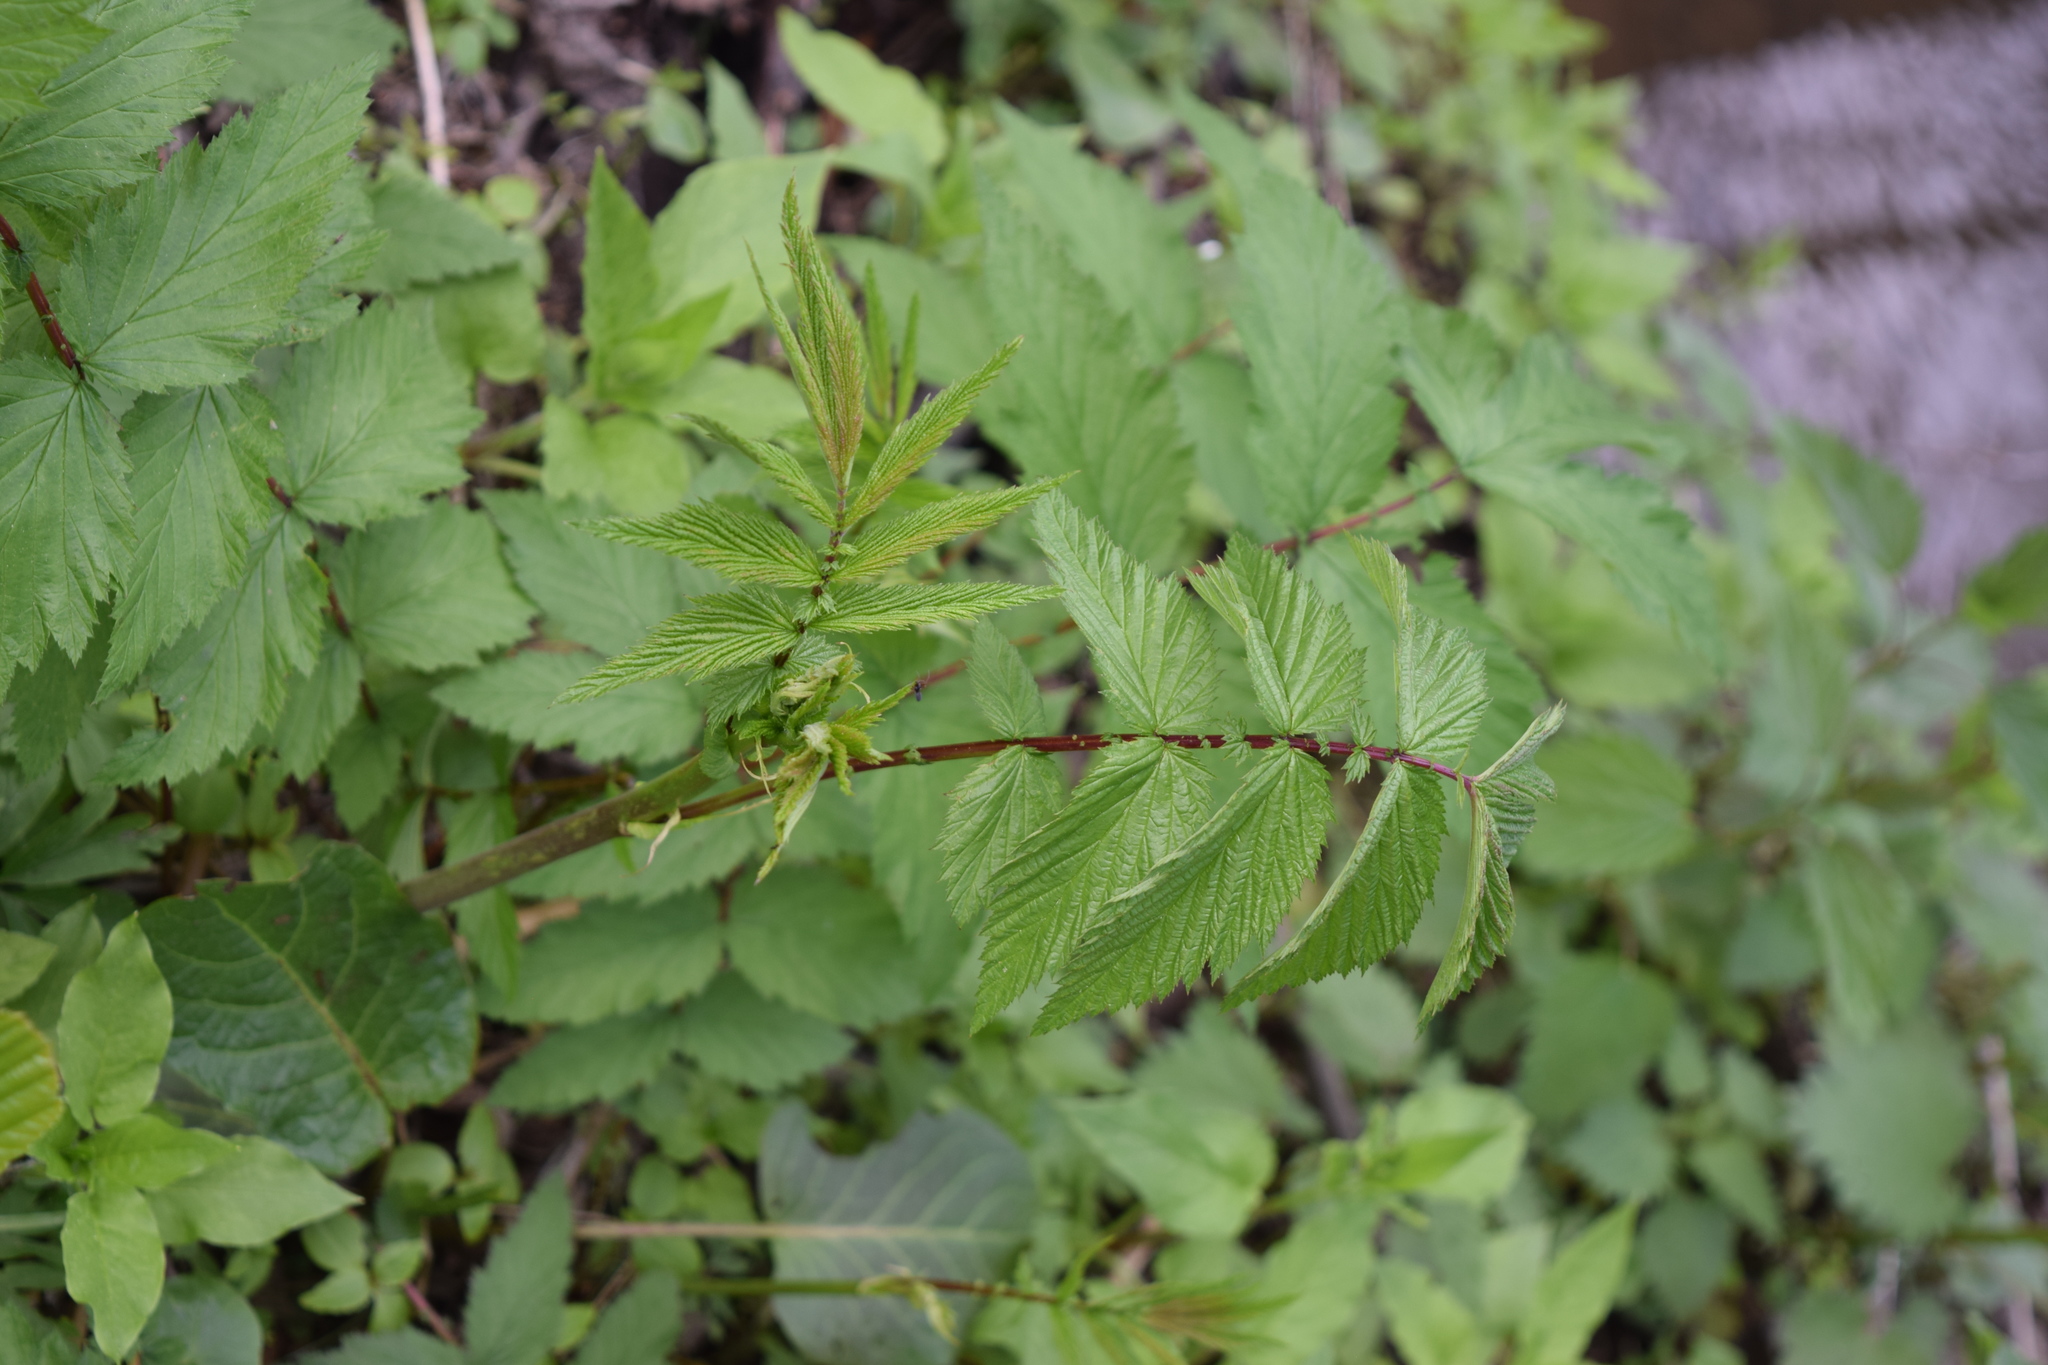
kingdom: Plantae
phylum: Tracheophyta
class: Magnoliopsida
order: Rosales
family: Rosaceae
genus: Filipendula
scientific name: Filipendula ulmaria
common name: Meadowsweet
